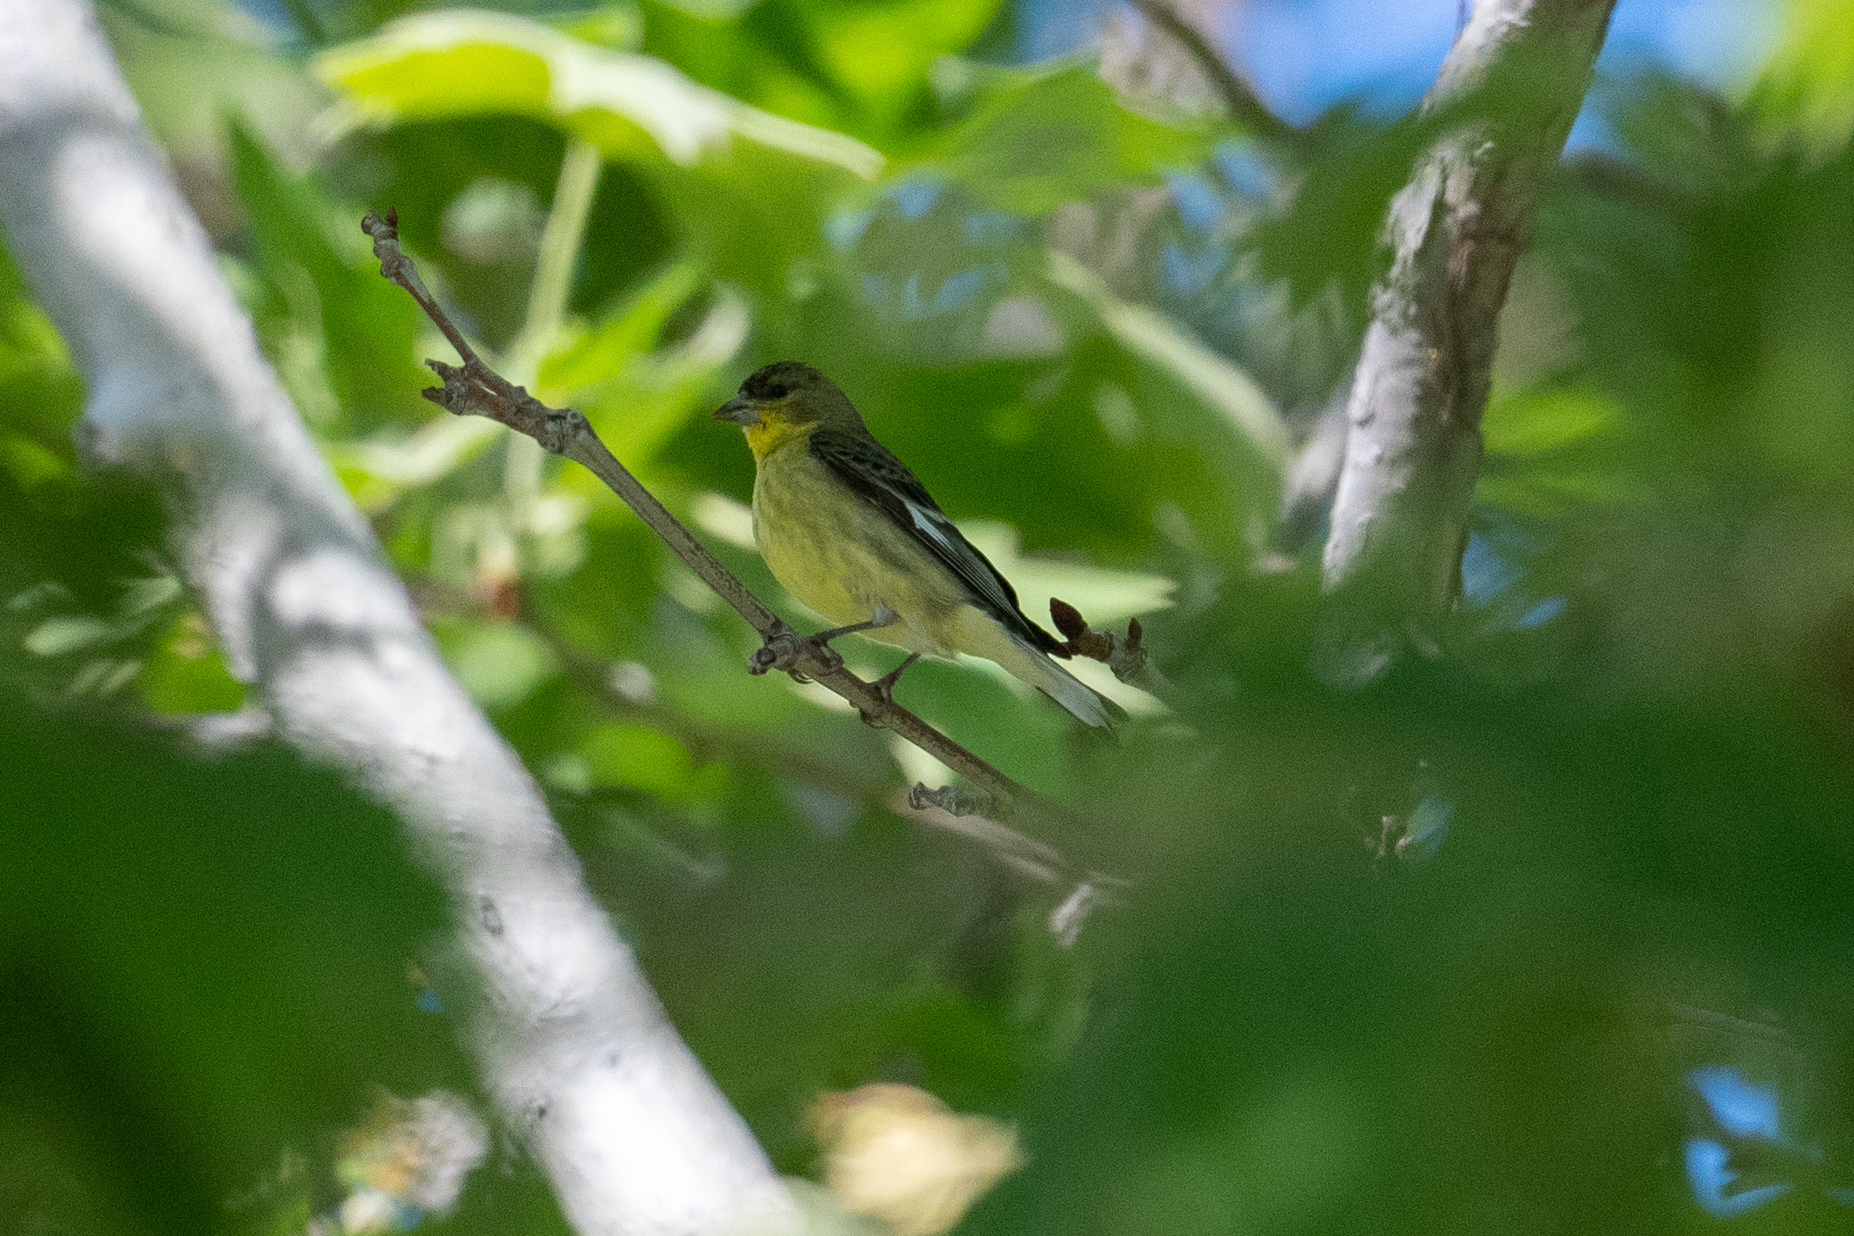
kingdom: Animalia
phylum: Chordata
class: Aves
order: Passeriformes
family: Fringillidae
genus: Spinus
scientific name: Spinus psaltria
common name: Lesser goldfinch
